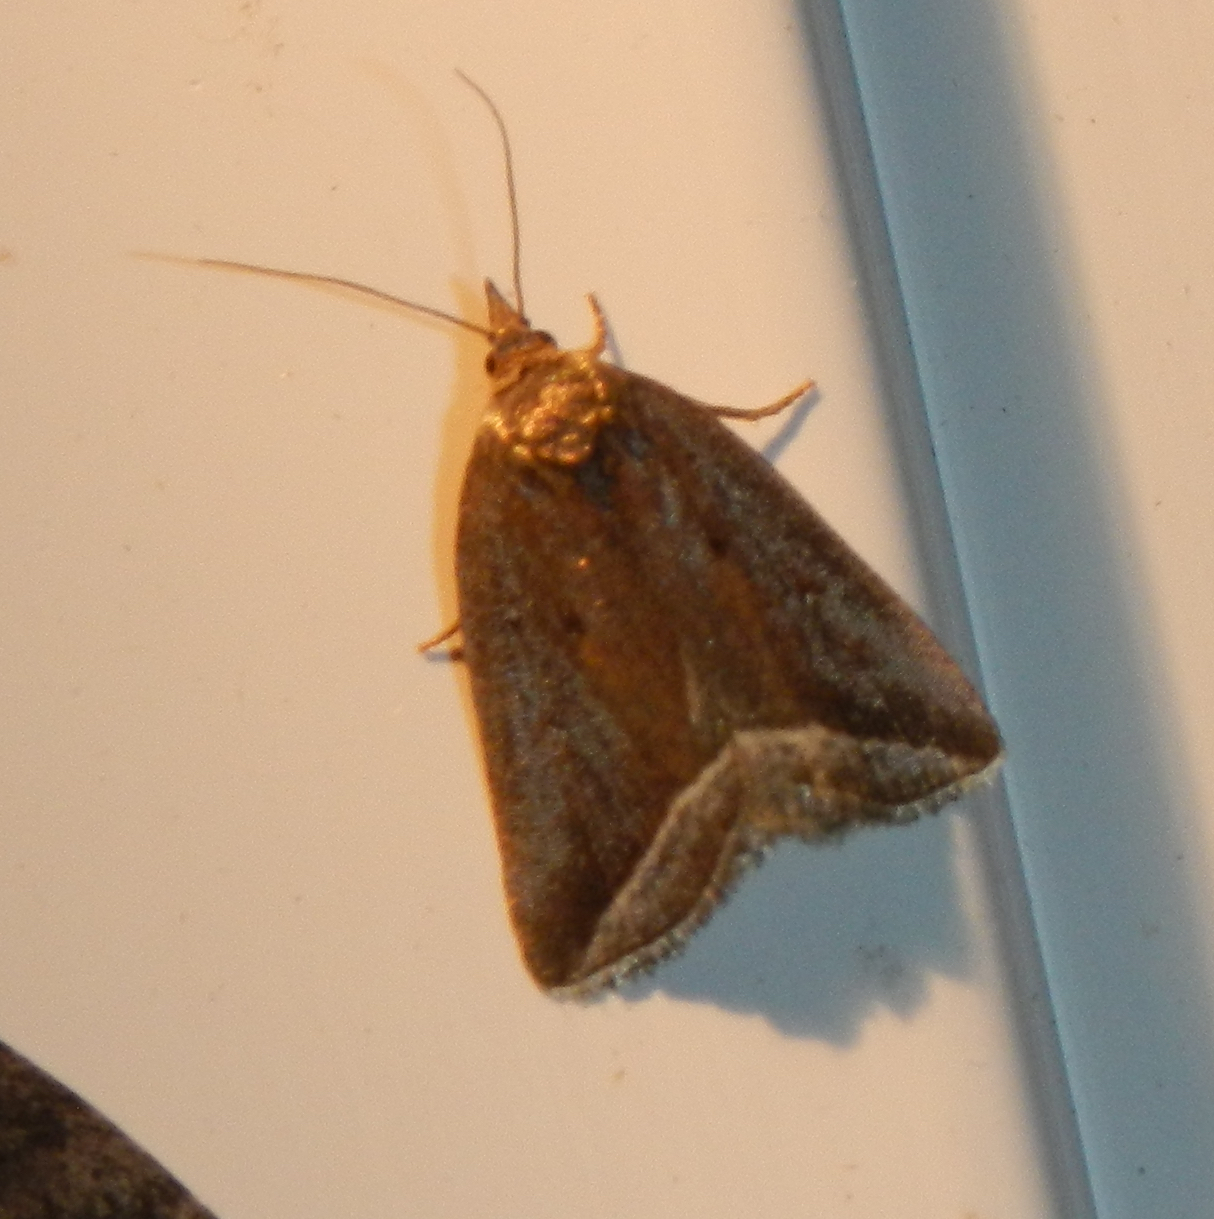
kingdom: Animalia
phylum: Arthropoda
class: Insecta
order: Lepidoptera
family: Erebidae
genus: Capis
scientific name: Capis curvata
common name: Curved halter moth
